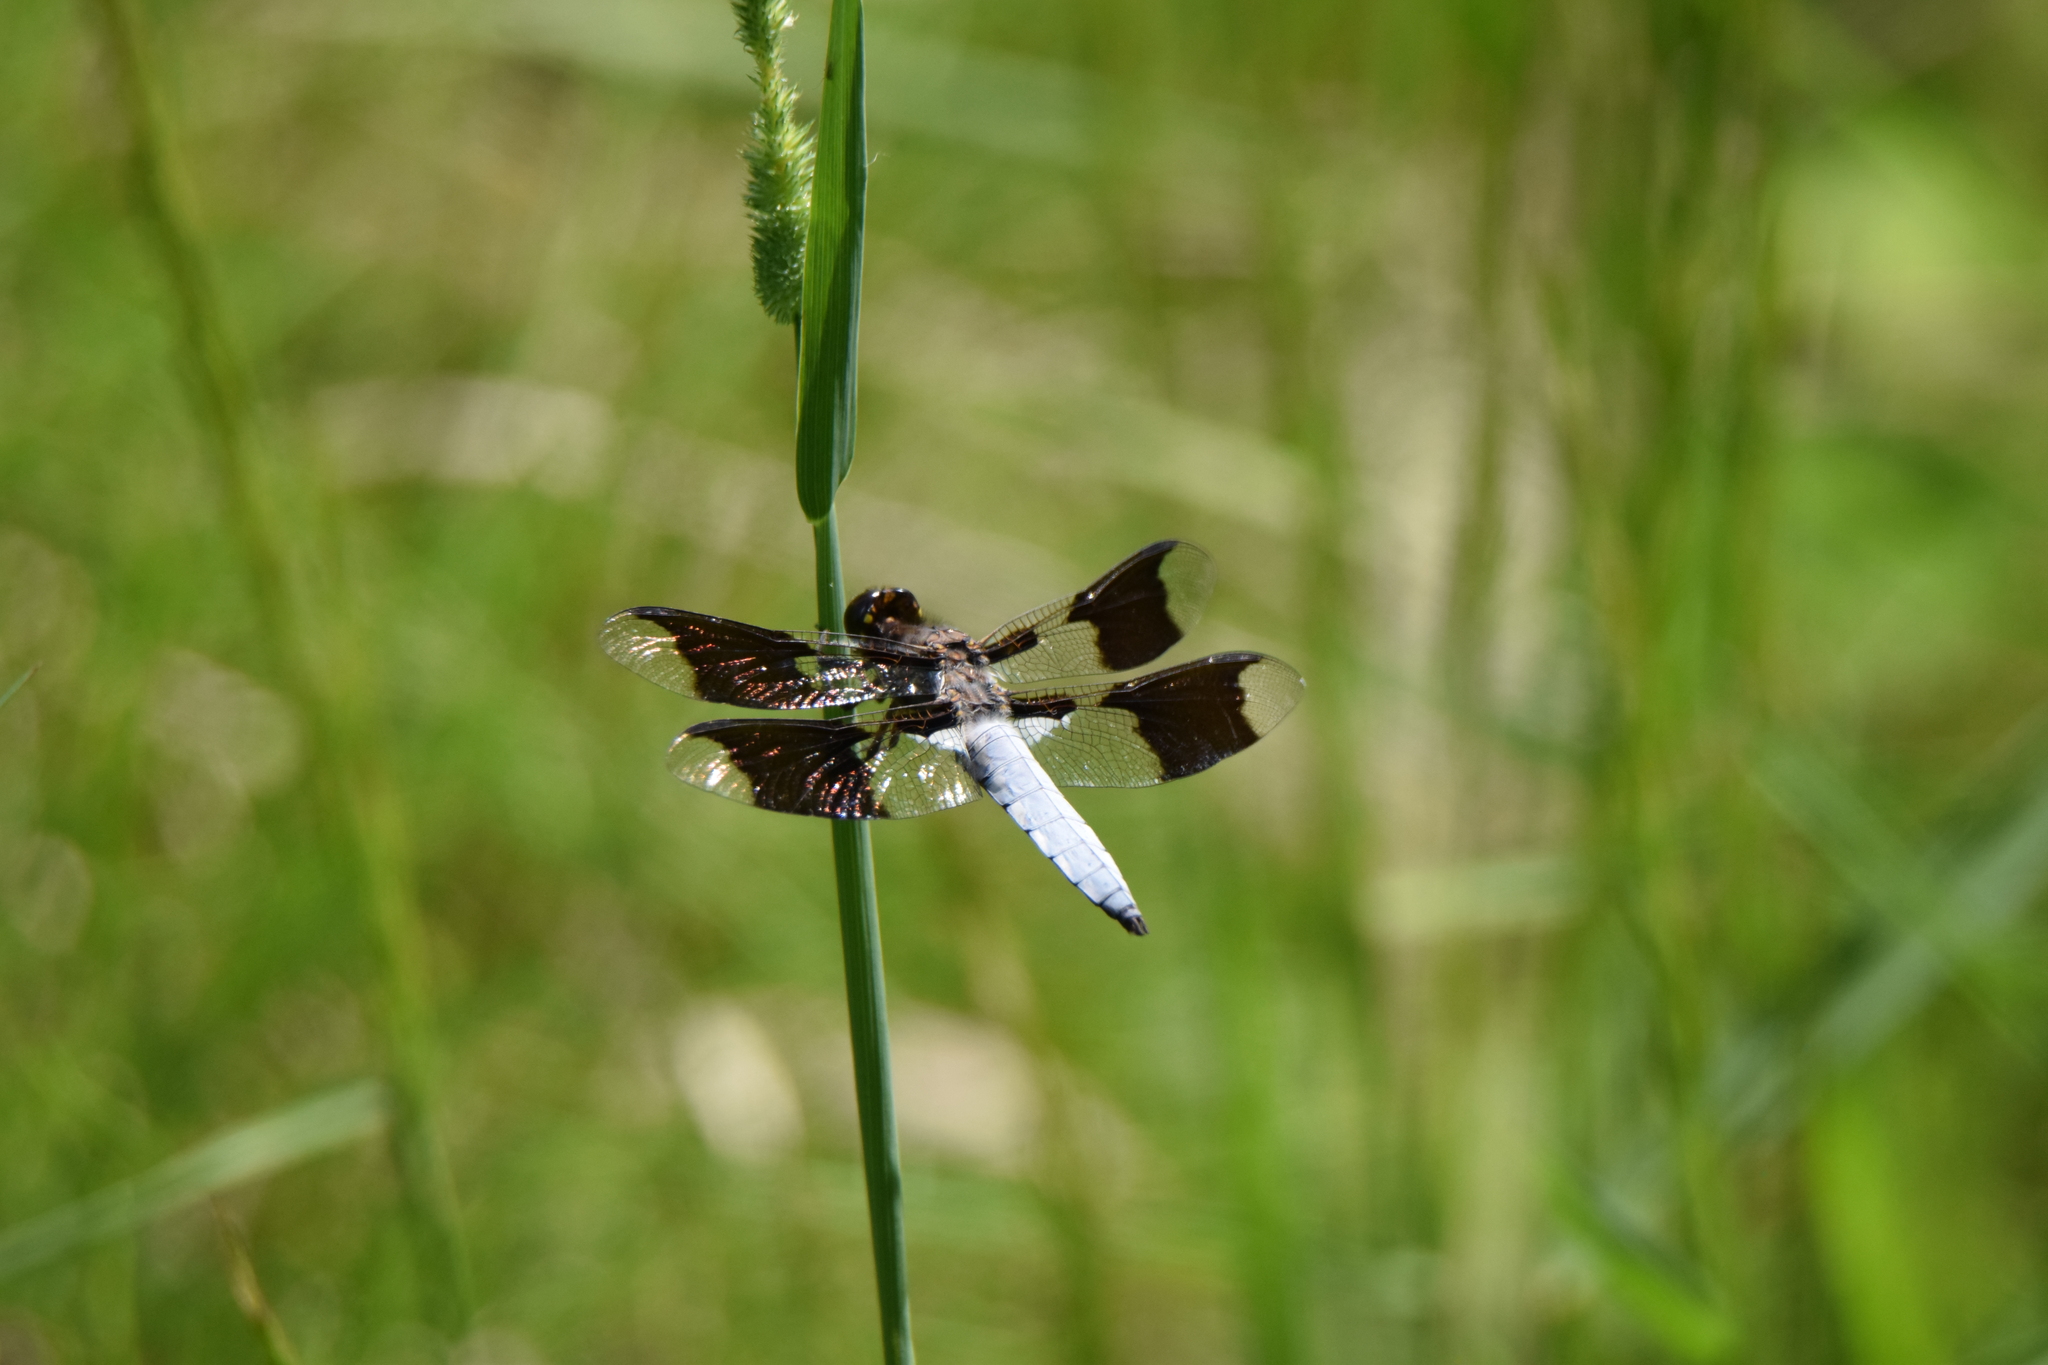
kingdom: Animalia
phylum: Arthropoda
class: Insecta
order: Odonata
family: Libellulidae
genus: Plathemis
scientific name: Plathemis lydia
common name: Common whitetail
